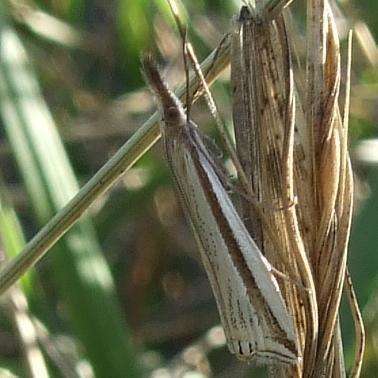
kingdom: Animalia
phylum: Arthropoda
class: Insecta
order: Lepidoptera
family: Crambidae
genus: Hednota
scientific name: Hednota invalidellus
